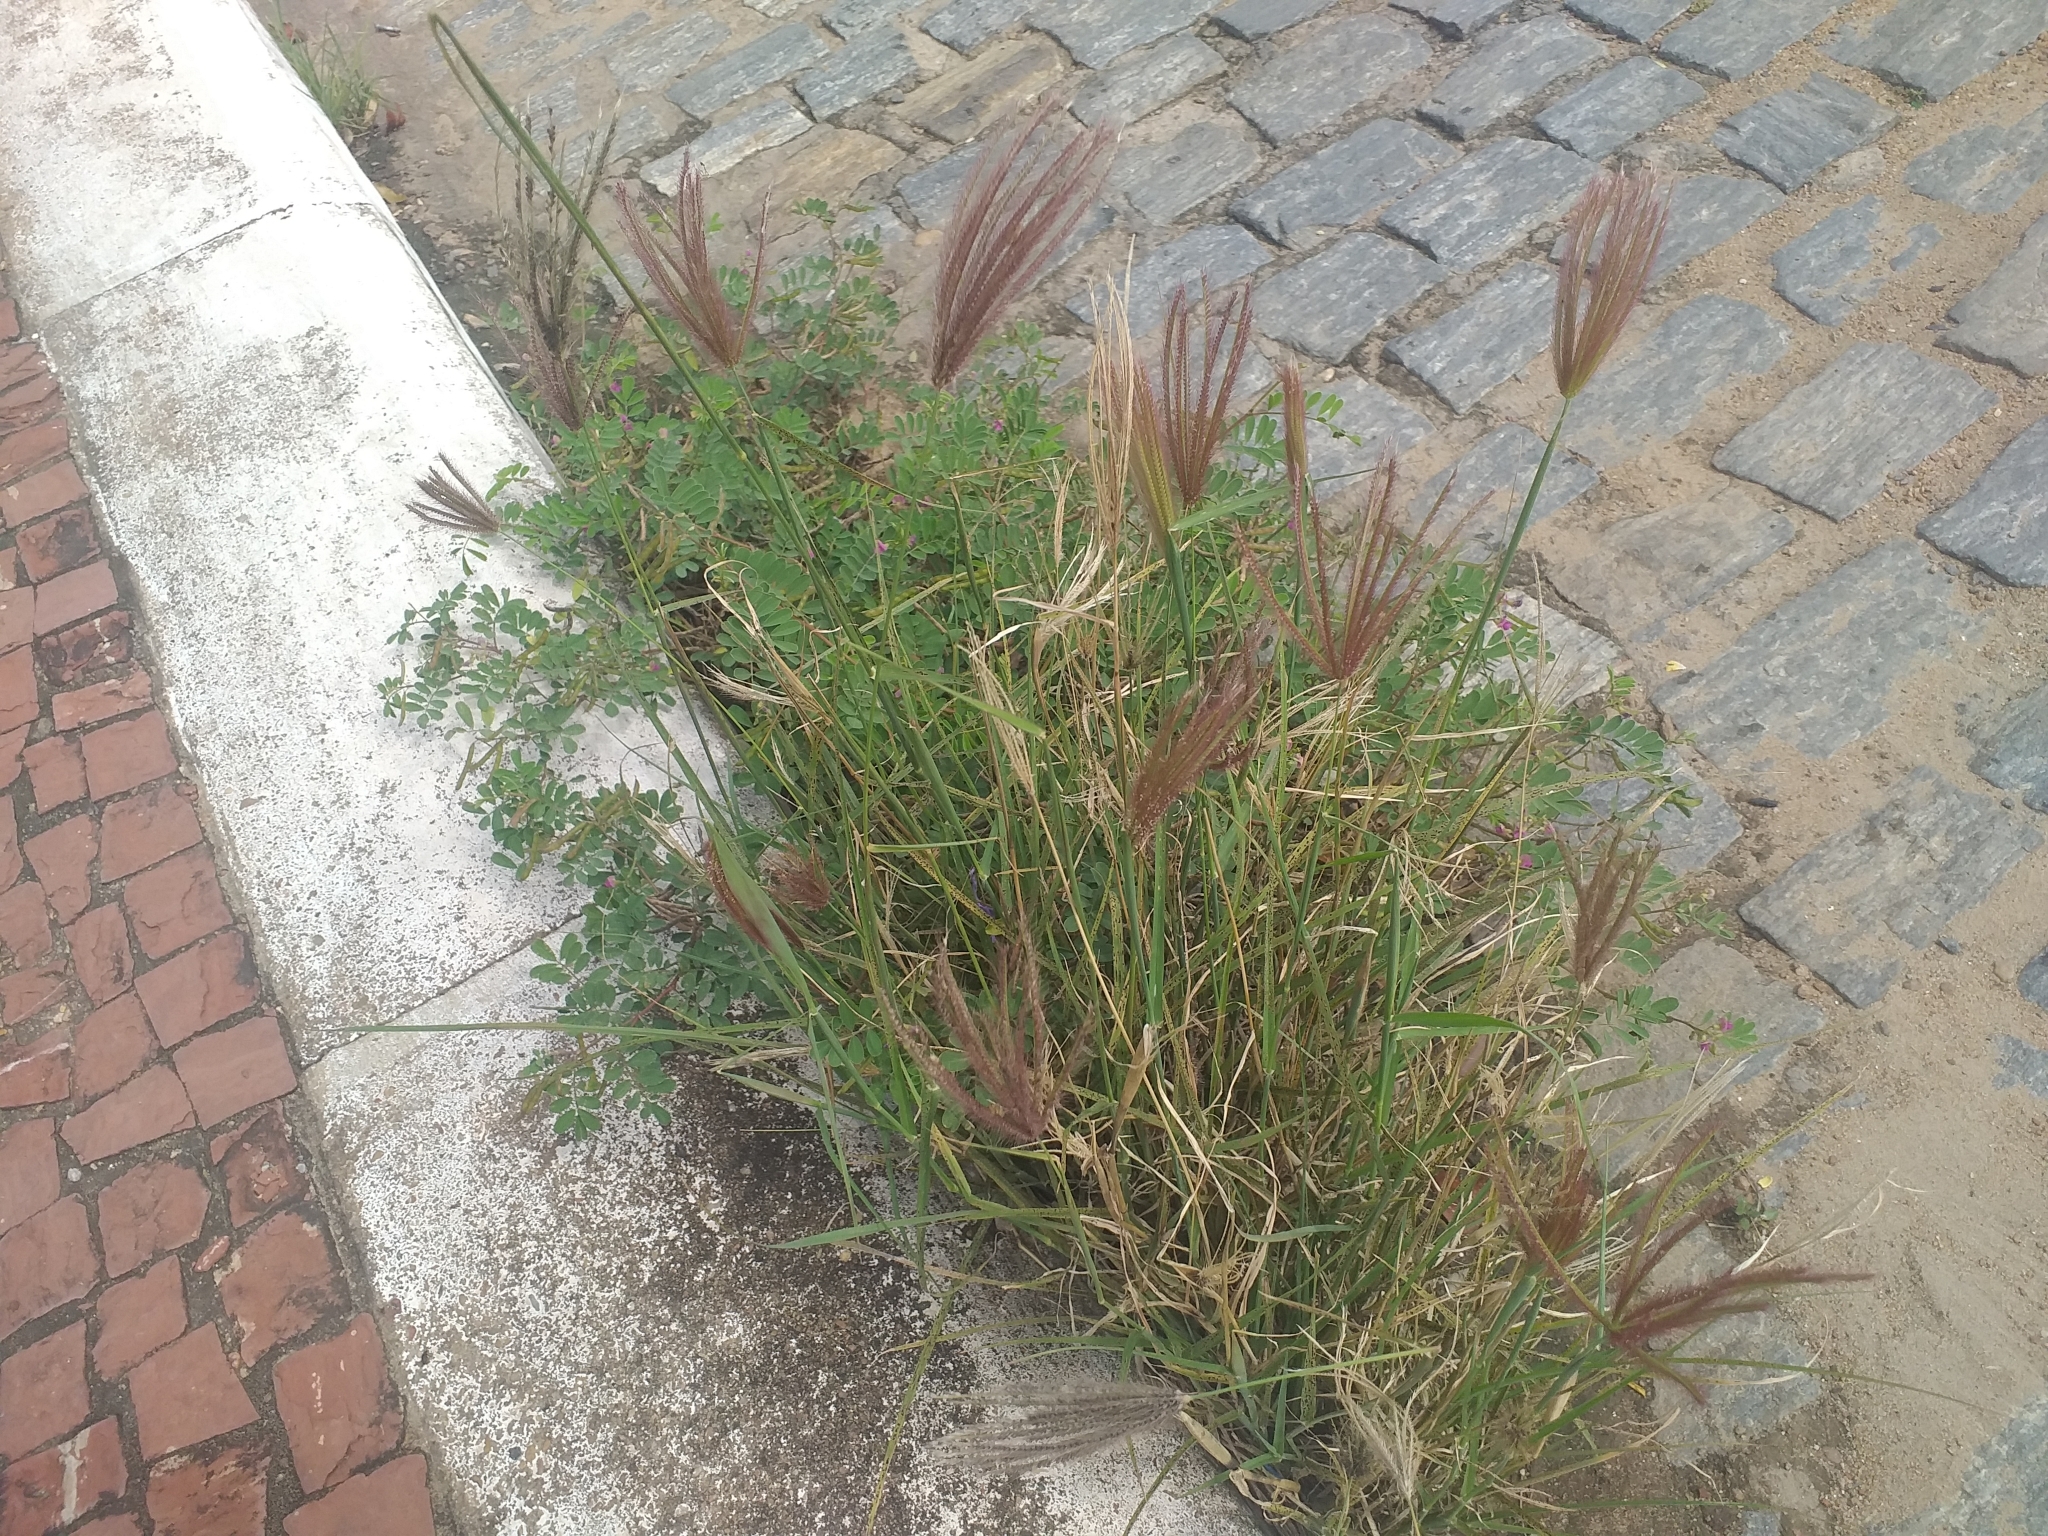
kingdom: Plantae
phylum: Tracheophyta
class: Liliopsida
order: Poales
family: Poaceae
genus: Chloris
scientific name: Chloris barbata
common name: Swollen fingergrass
